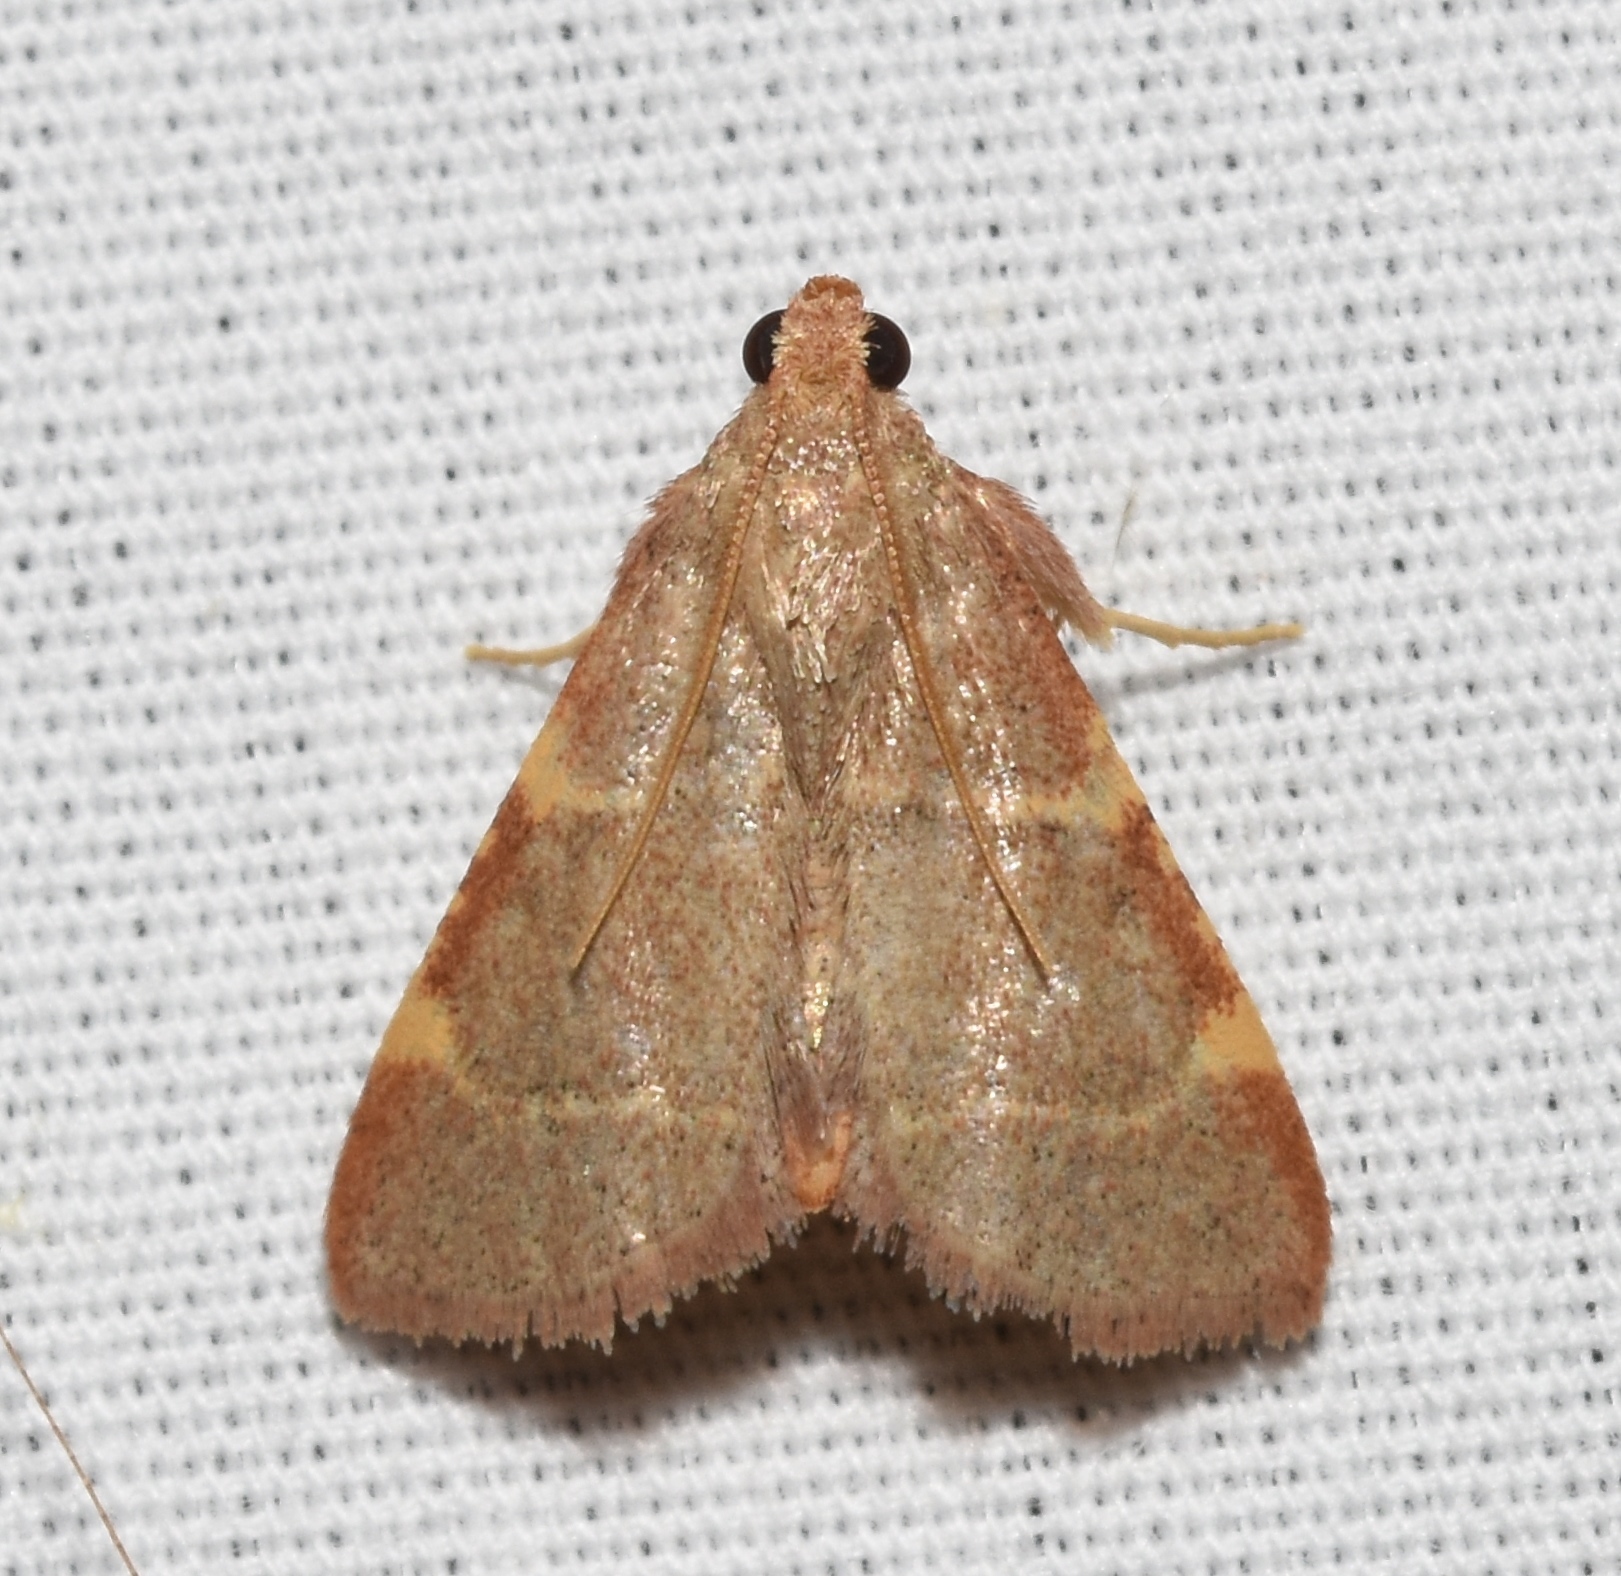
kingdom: Animalia
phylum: Arthropoda
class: Insecta
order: Lepidoptera
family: Pyralidae
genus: Hypsopygia
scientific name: Hypsopygia binodulalis
